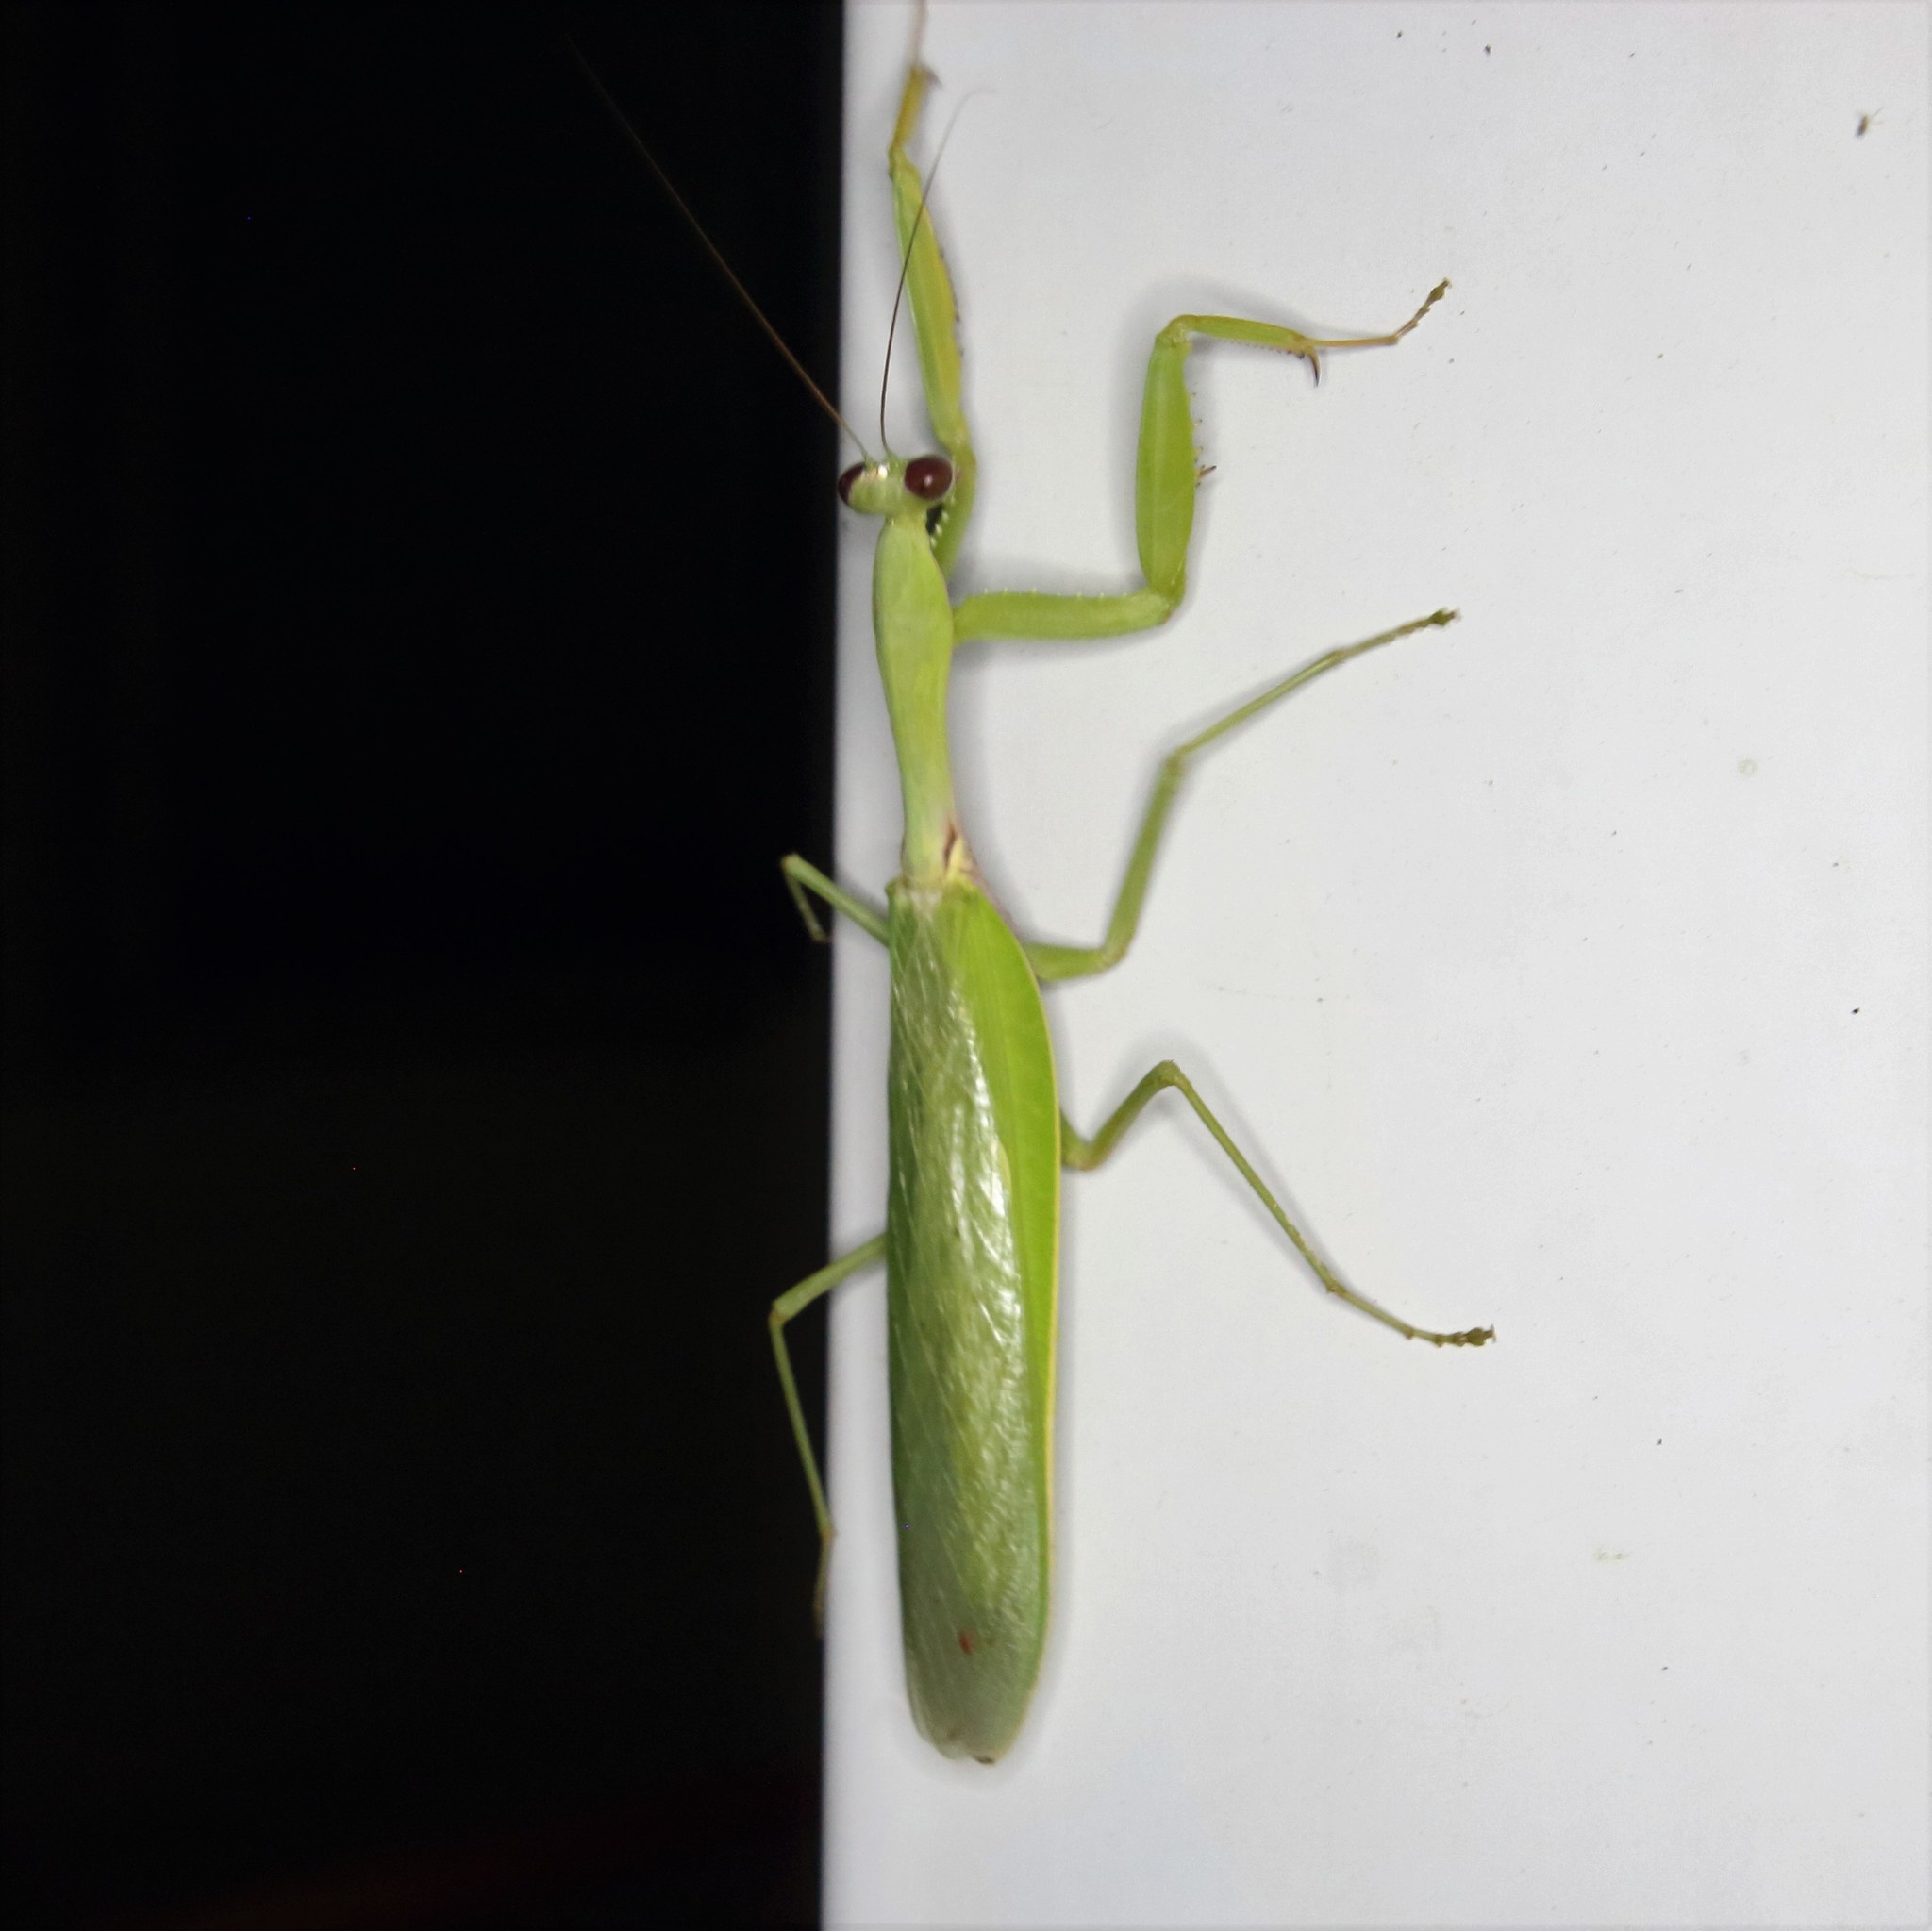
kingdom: Animalia
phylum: Arthropoda
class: Insecta
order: Mantodea
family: Mantidae
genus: Hierodula
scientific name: Hierodula pistillinota
